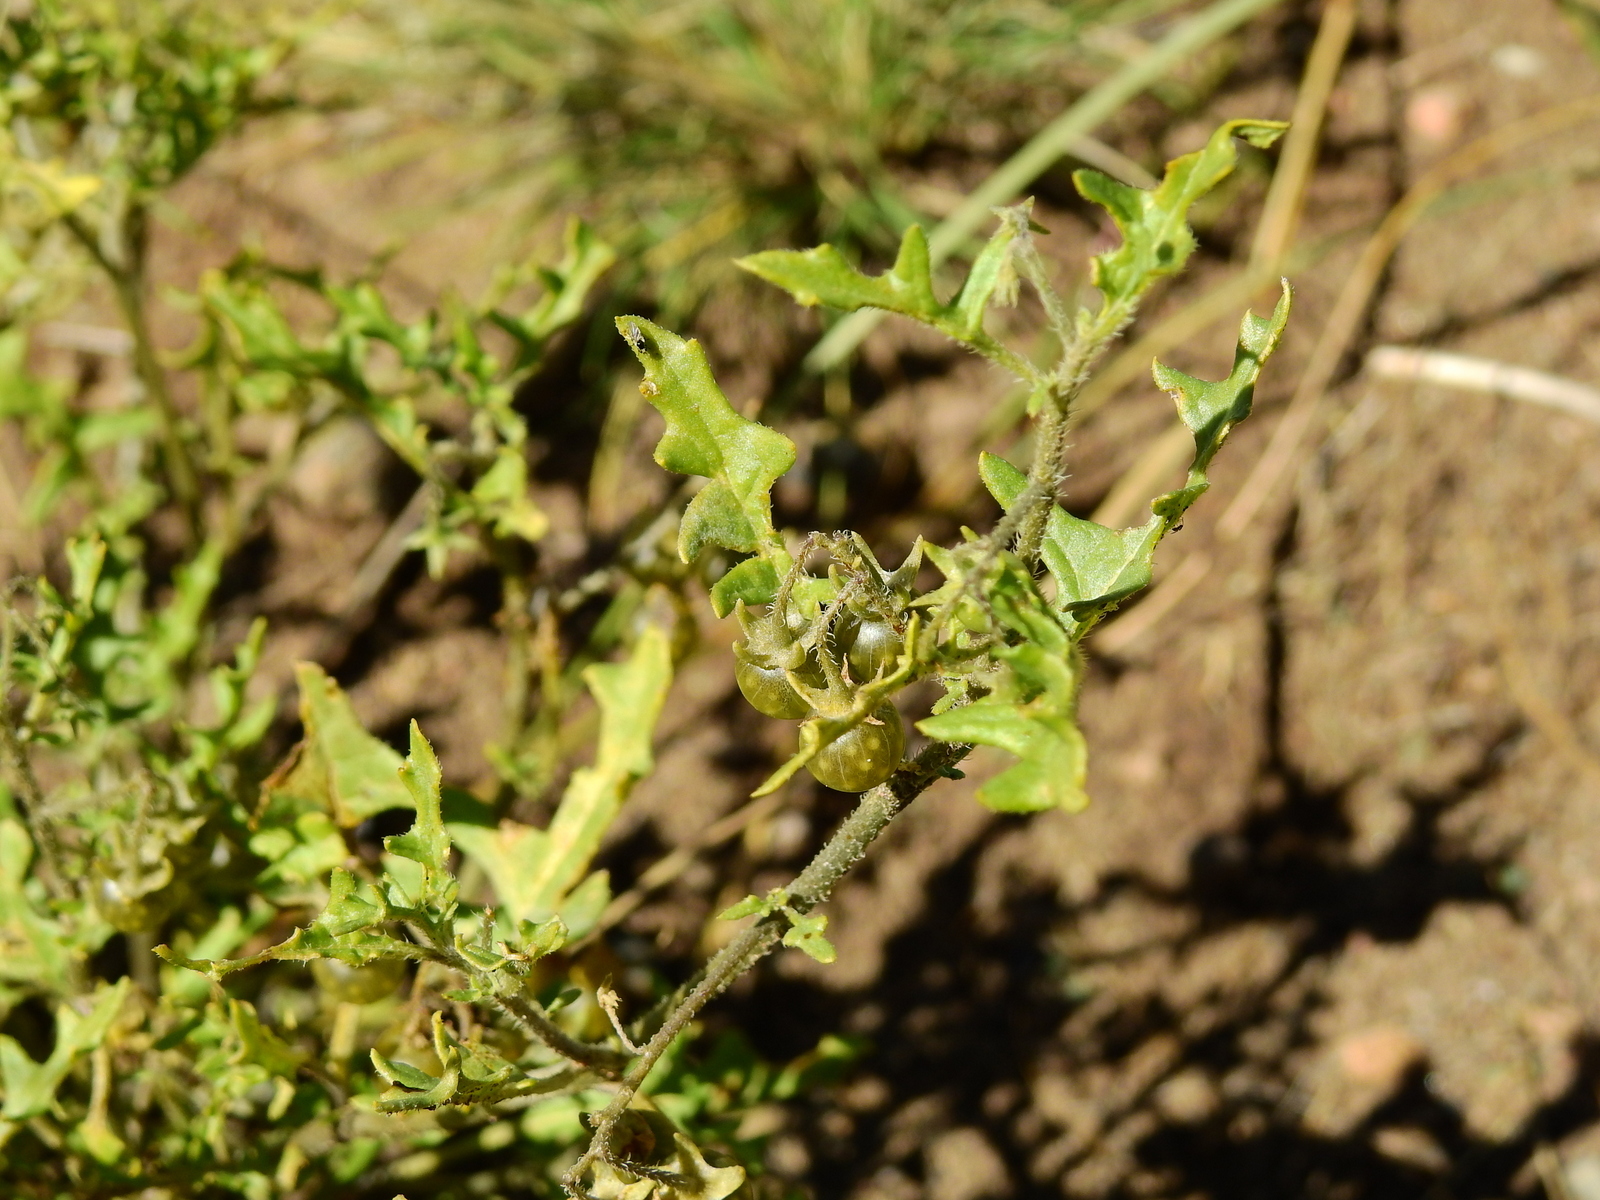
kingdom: Plantae
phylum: Tracheophyta
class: Magnoliopsida
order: Solanales
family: Solanaceae
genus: Solanum
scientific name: Solanum triflorum
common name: Small nightshade
